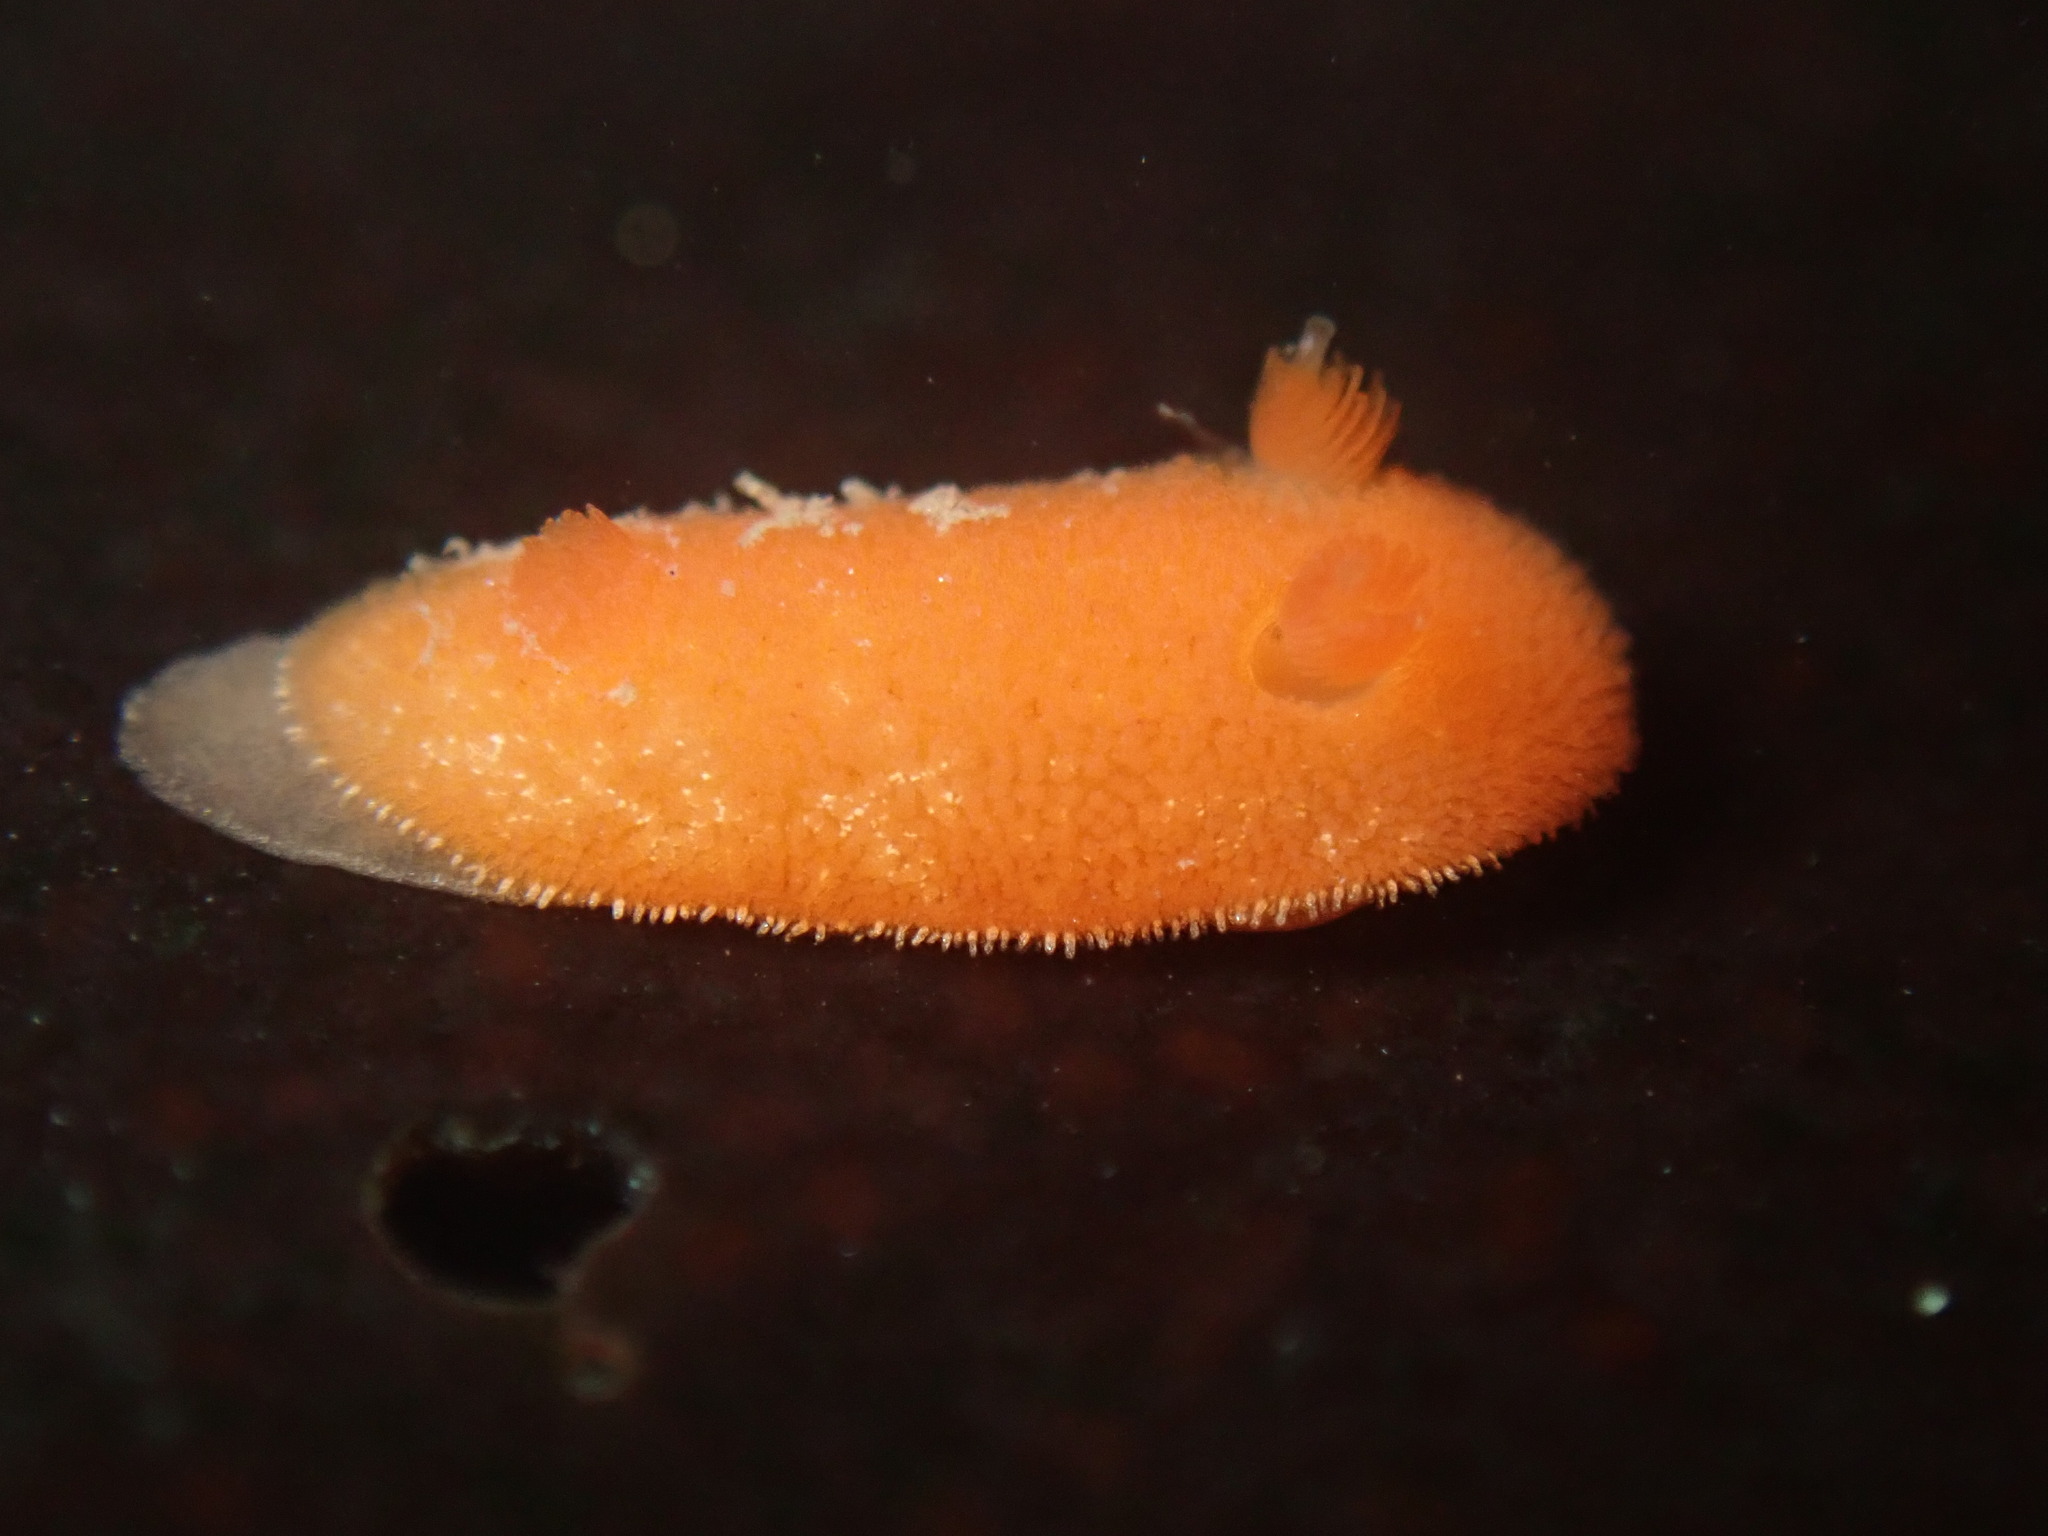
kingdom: Animalia
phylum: Mollusca
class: Gastropoda
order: Nudibranchia
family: Discodorididae
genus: Rostanga
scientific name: Rostanga pulchra
